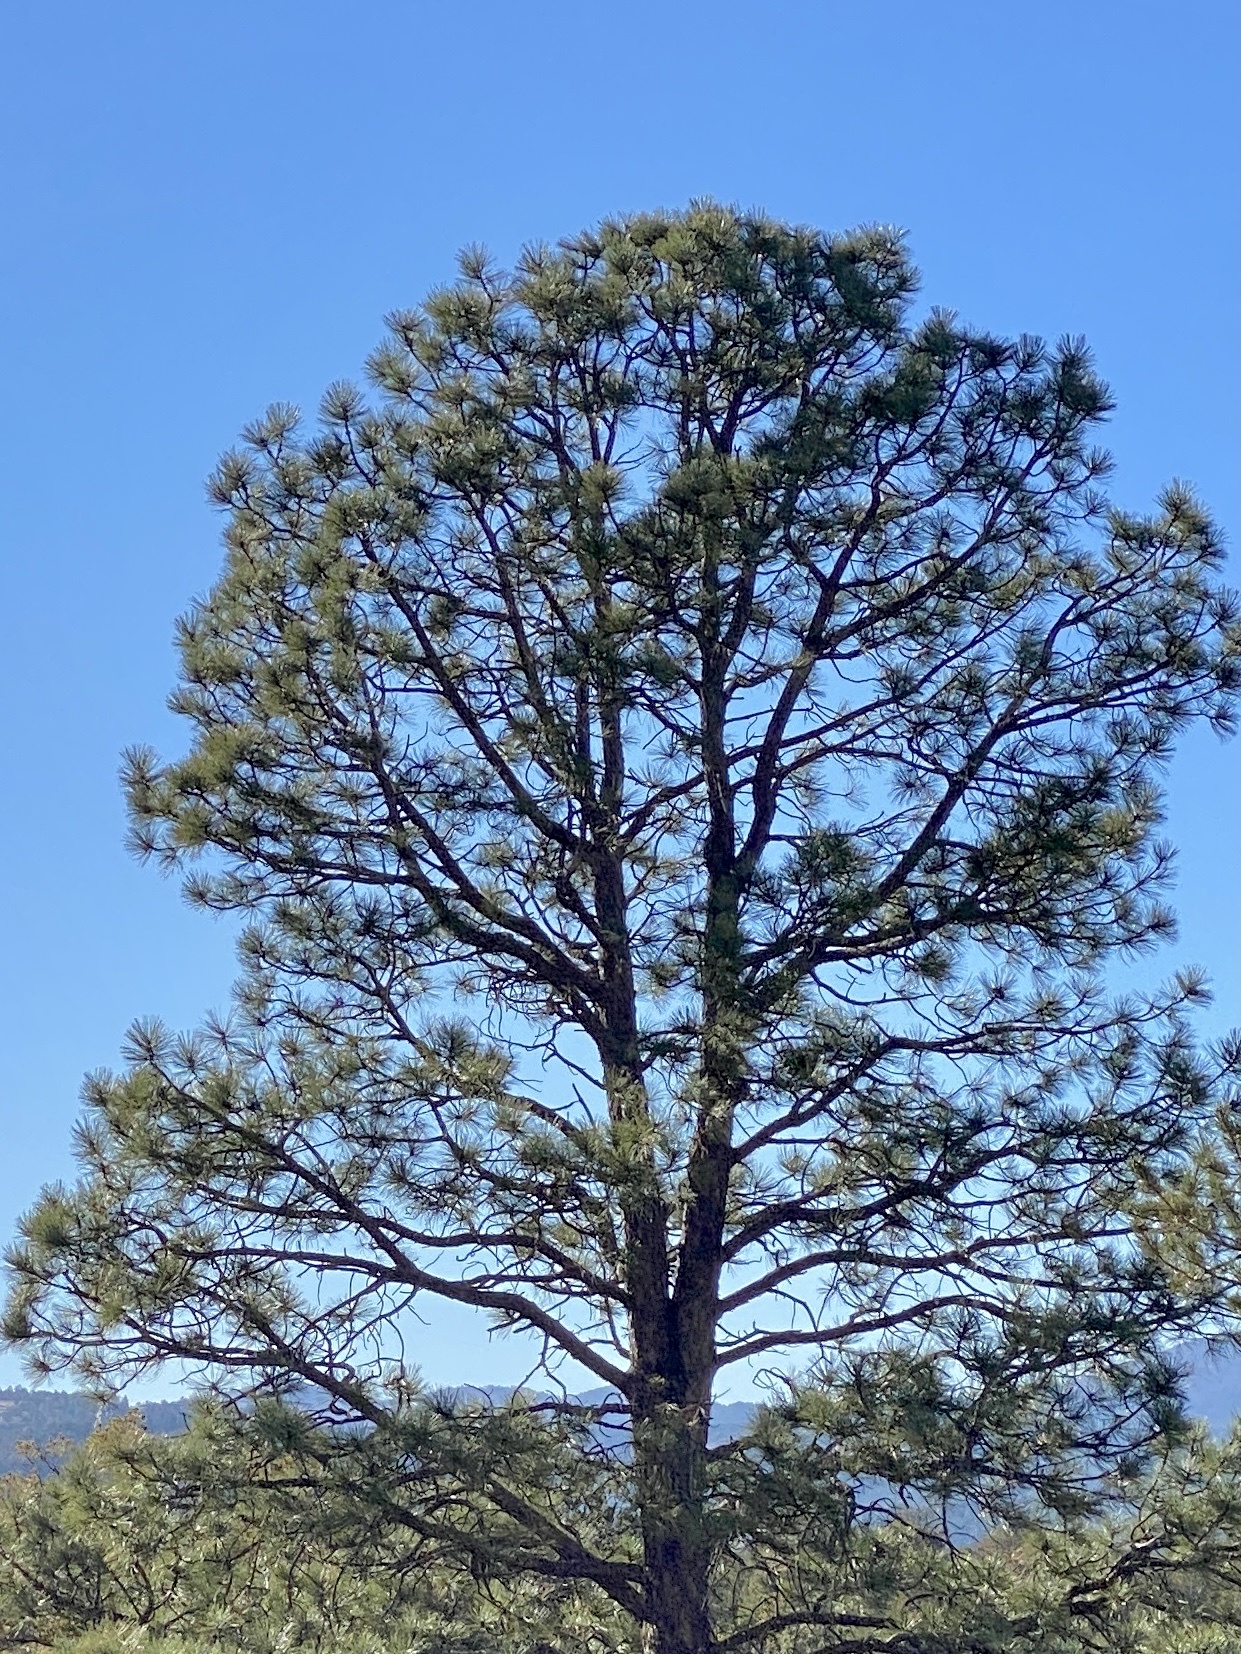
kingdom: Plantae
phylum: Tracheophyta
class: Pinopsida
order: Pinales
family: Pinaceae
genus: Pinus
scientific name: Pinus ponderosa
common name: Western yellow-pine
